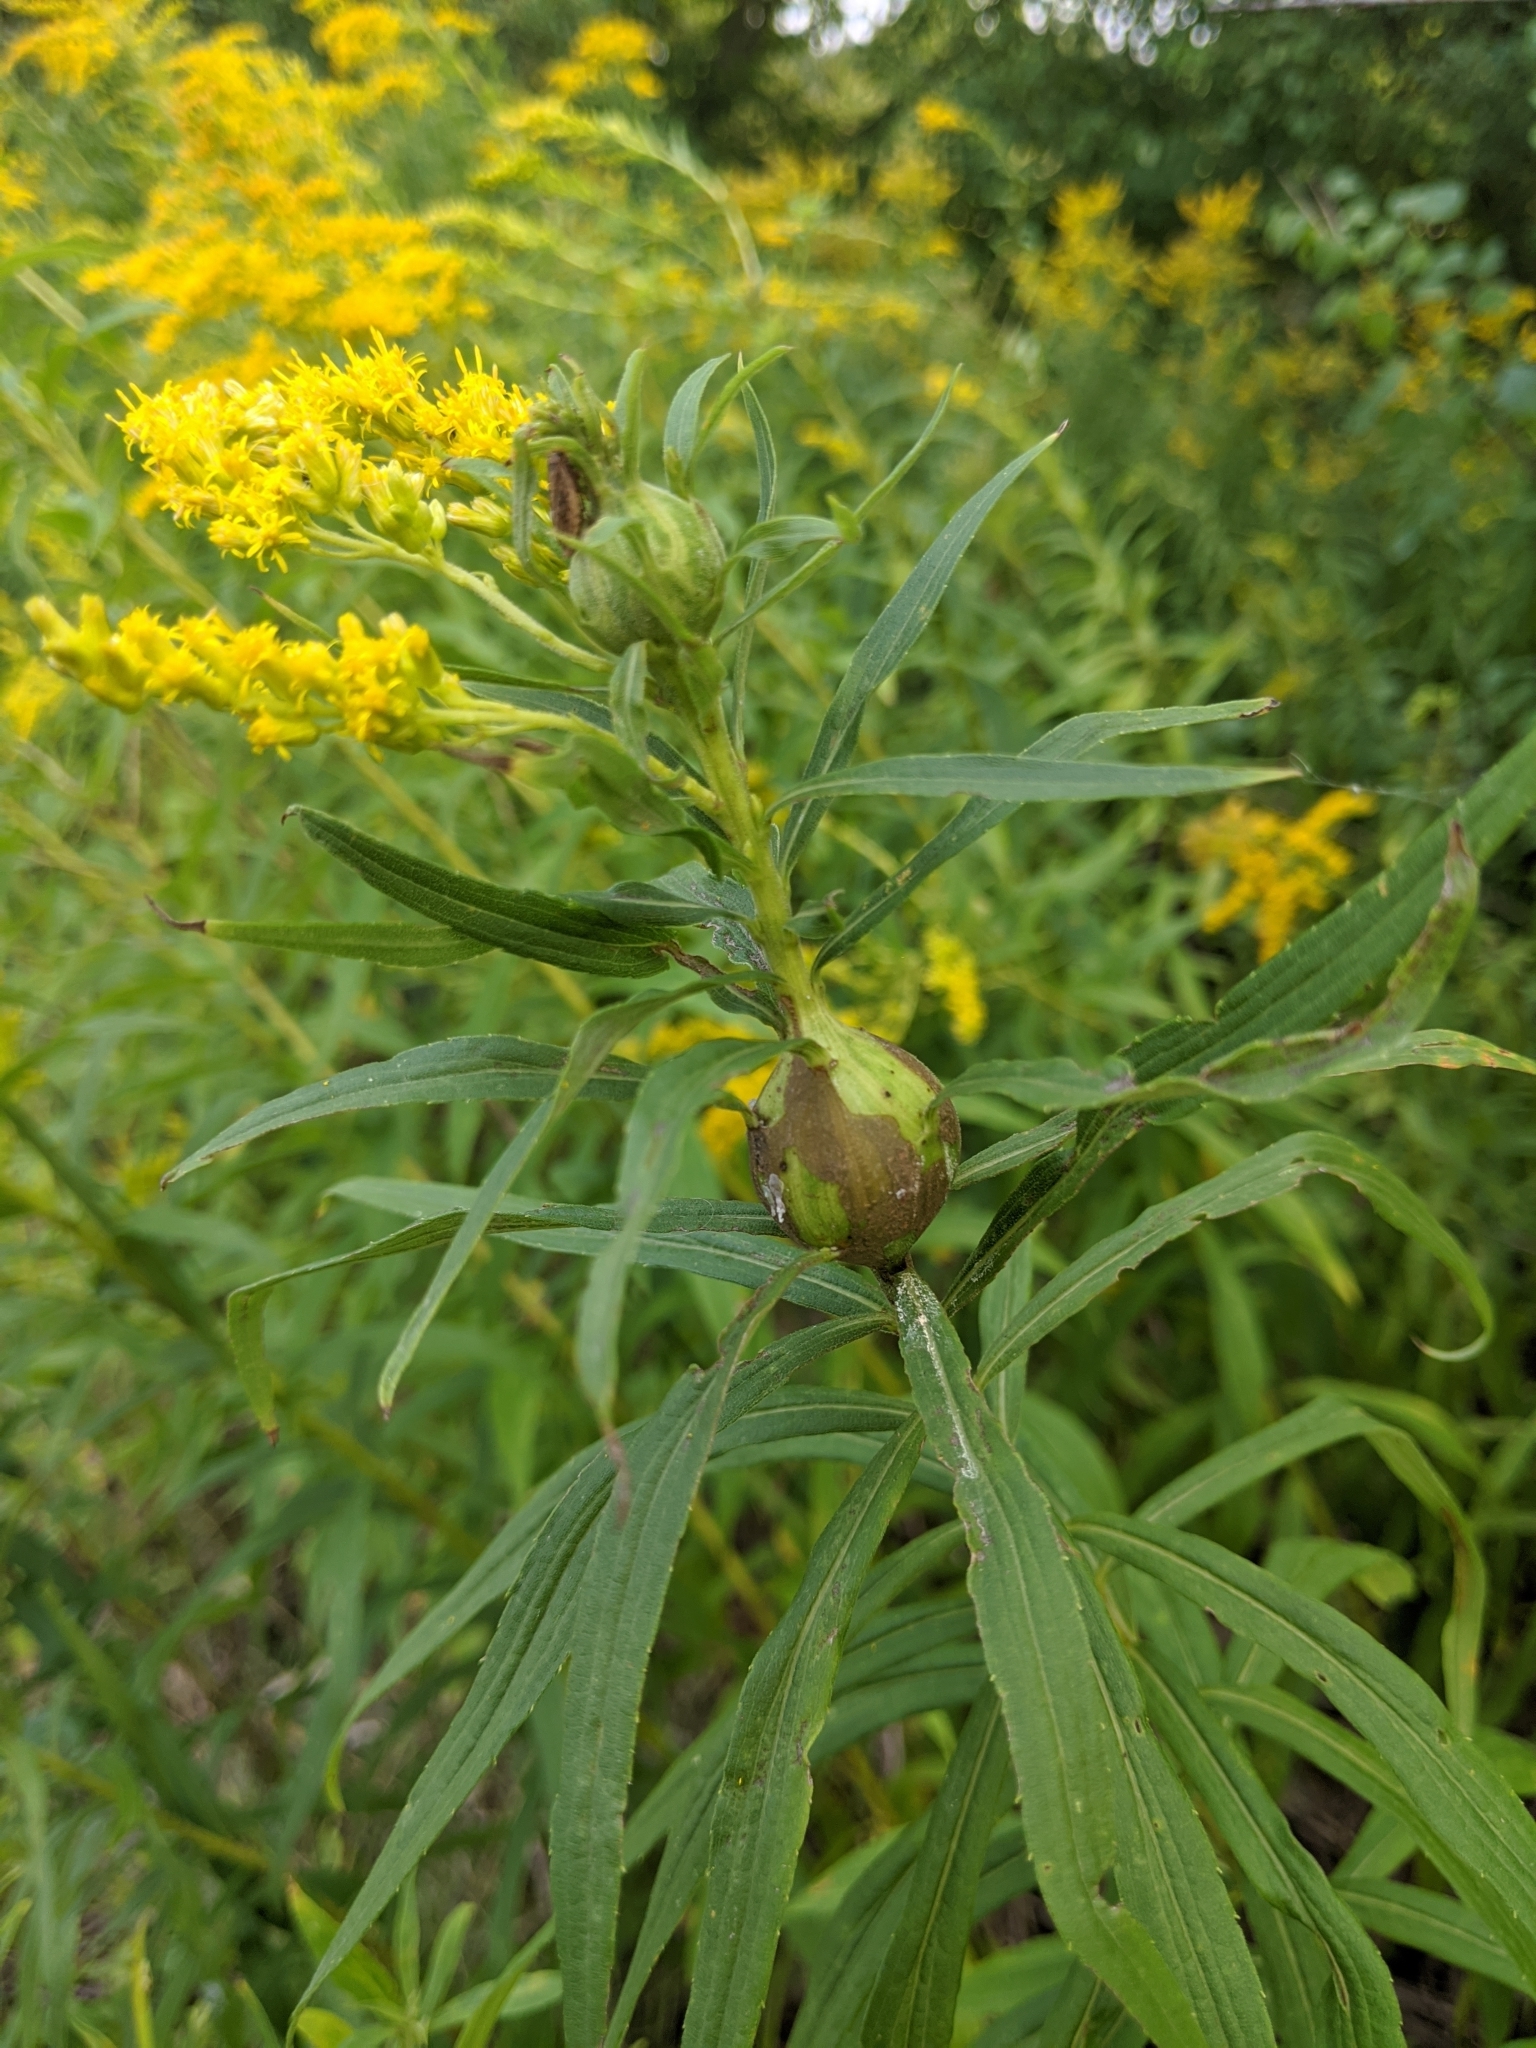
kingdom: Animalia
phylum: Arthropoda
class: Insecta
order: Diptera
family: Tephritidae
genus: Eurosta
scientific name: Eurosta solidaginis
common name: Goldenrod gall fly
